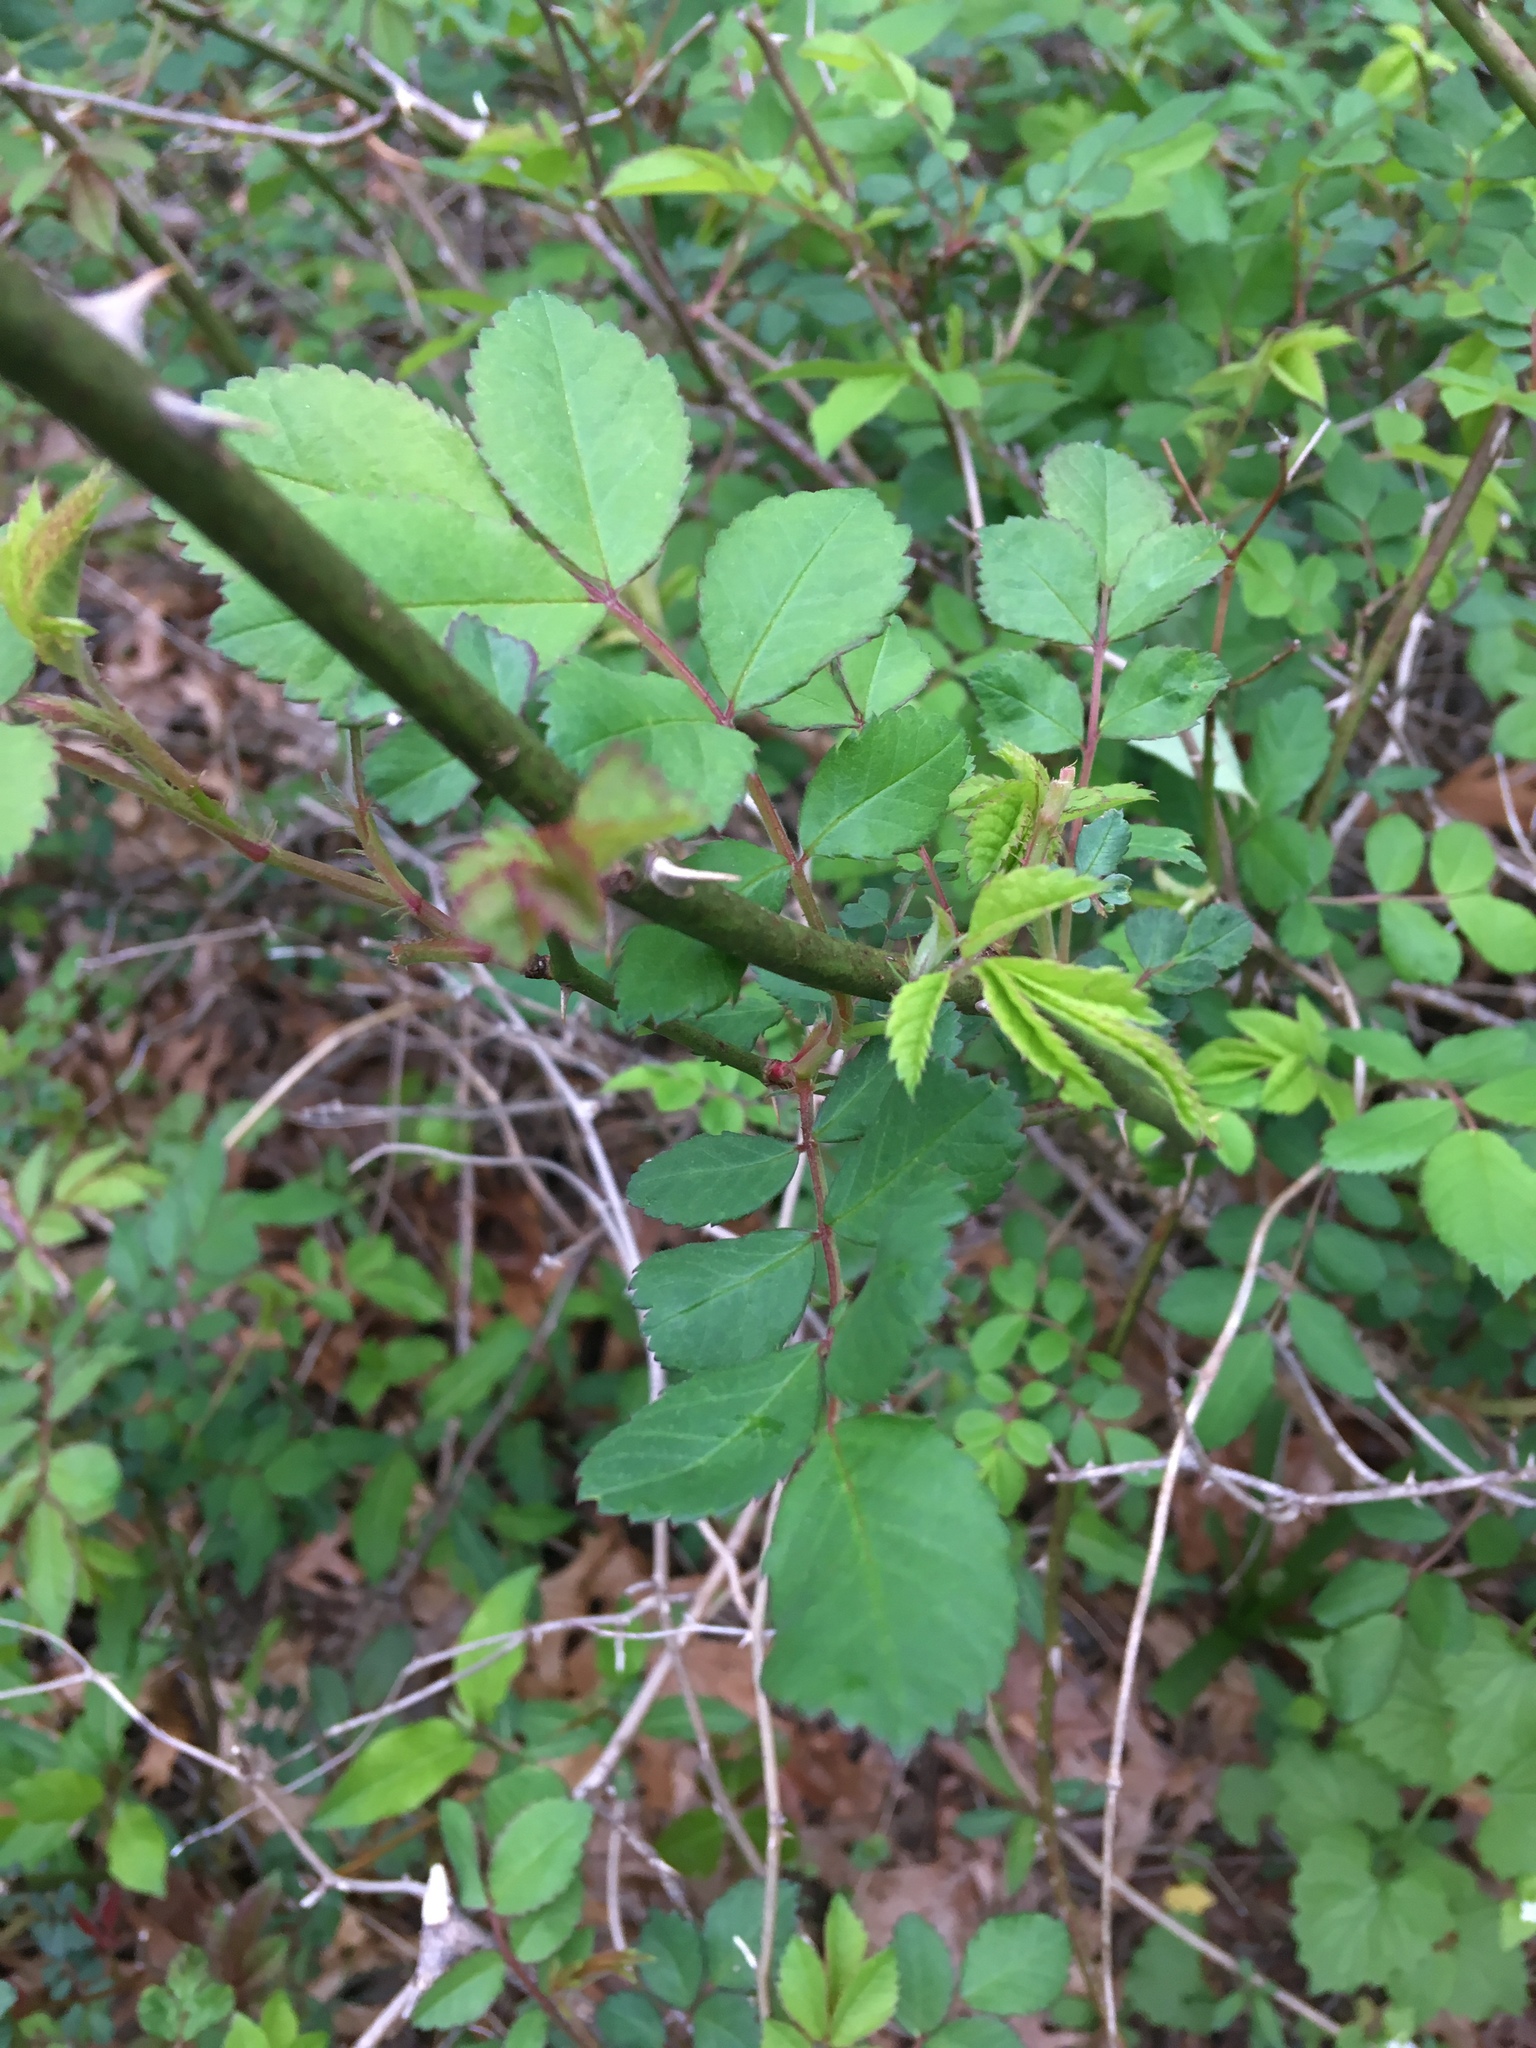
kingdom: Plantae
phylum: Tracheophyta
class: Magnoliopsida
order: Rosales
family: Rosaceae
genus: Rosa
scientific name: Rosa multiflora
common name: Multiflora rose
